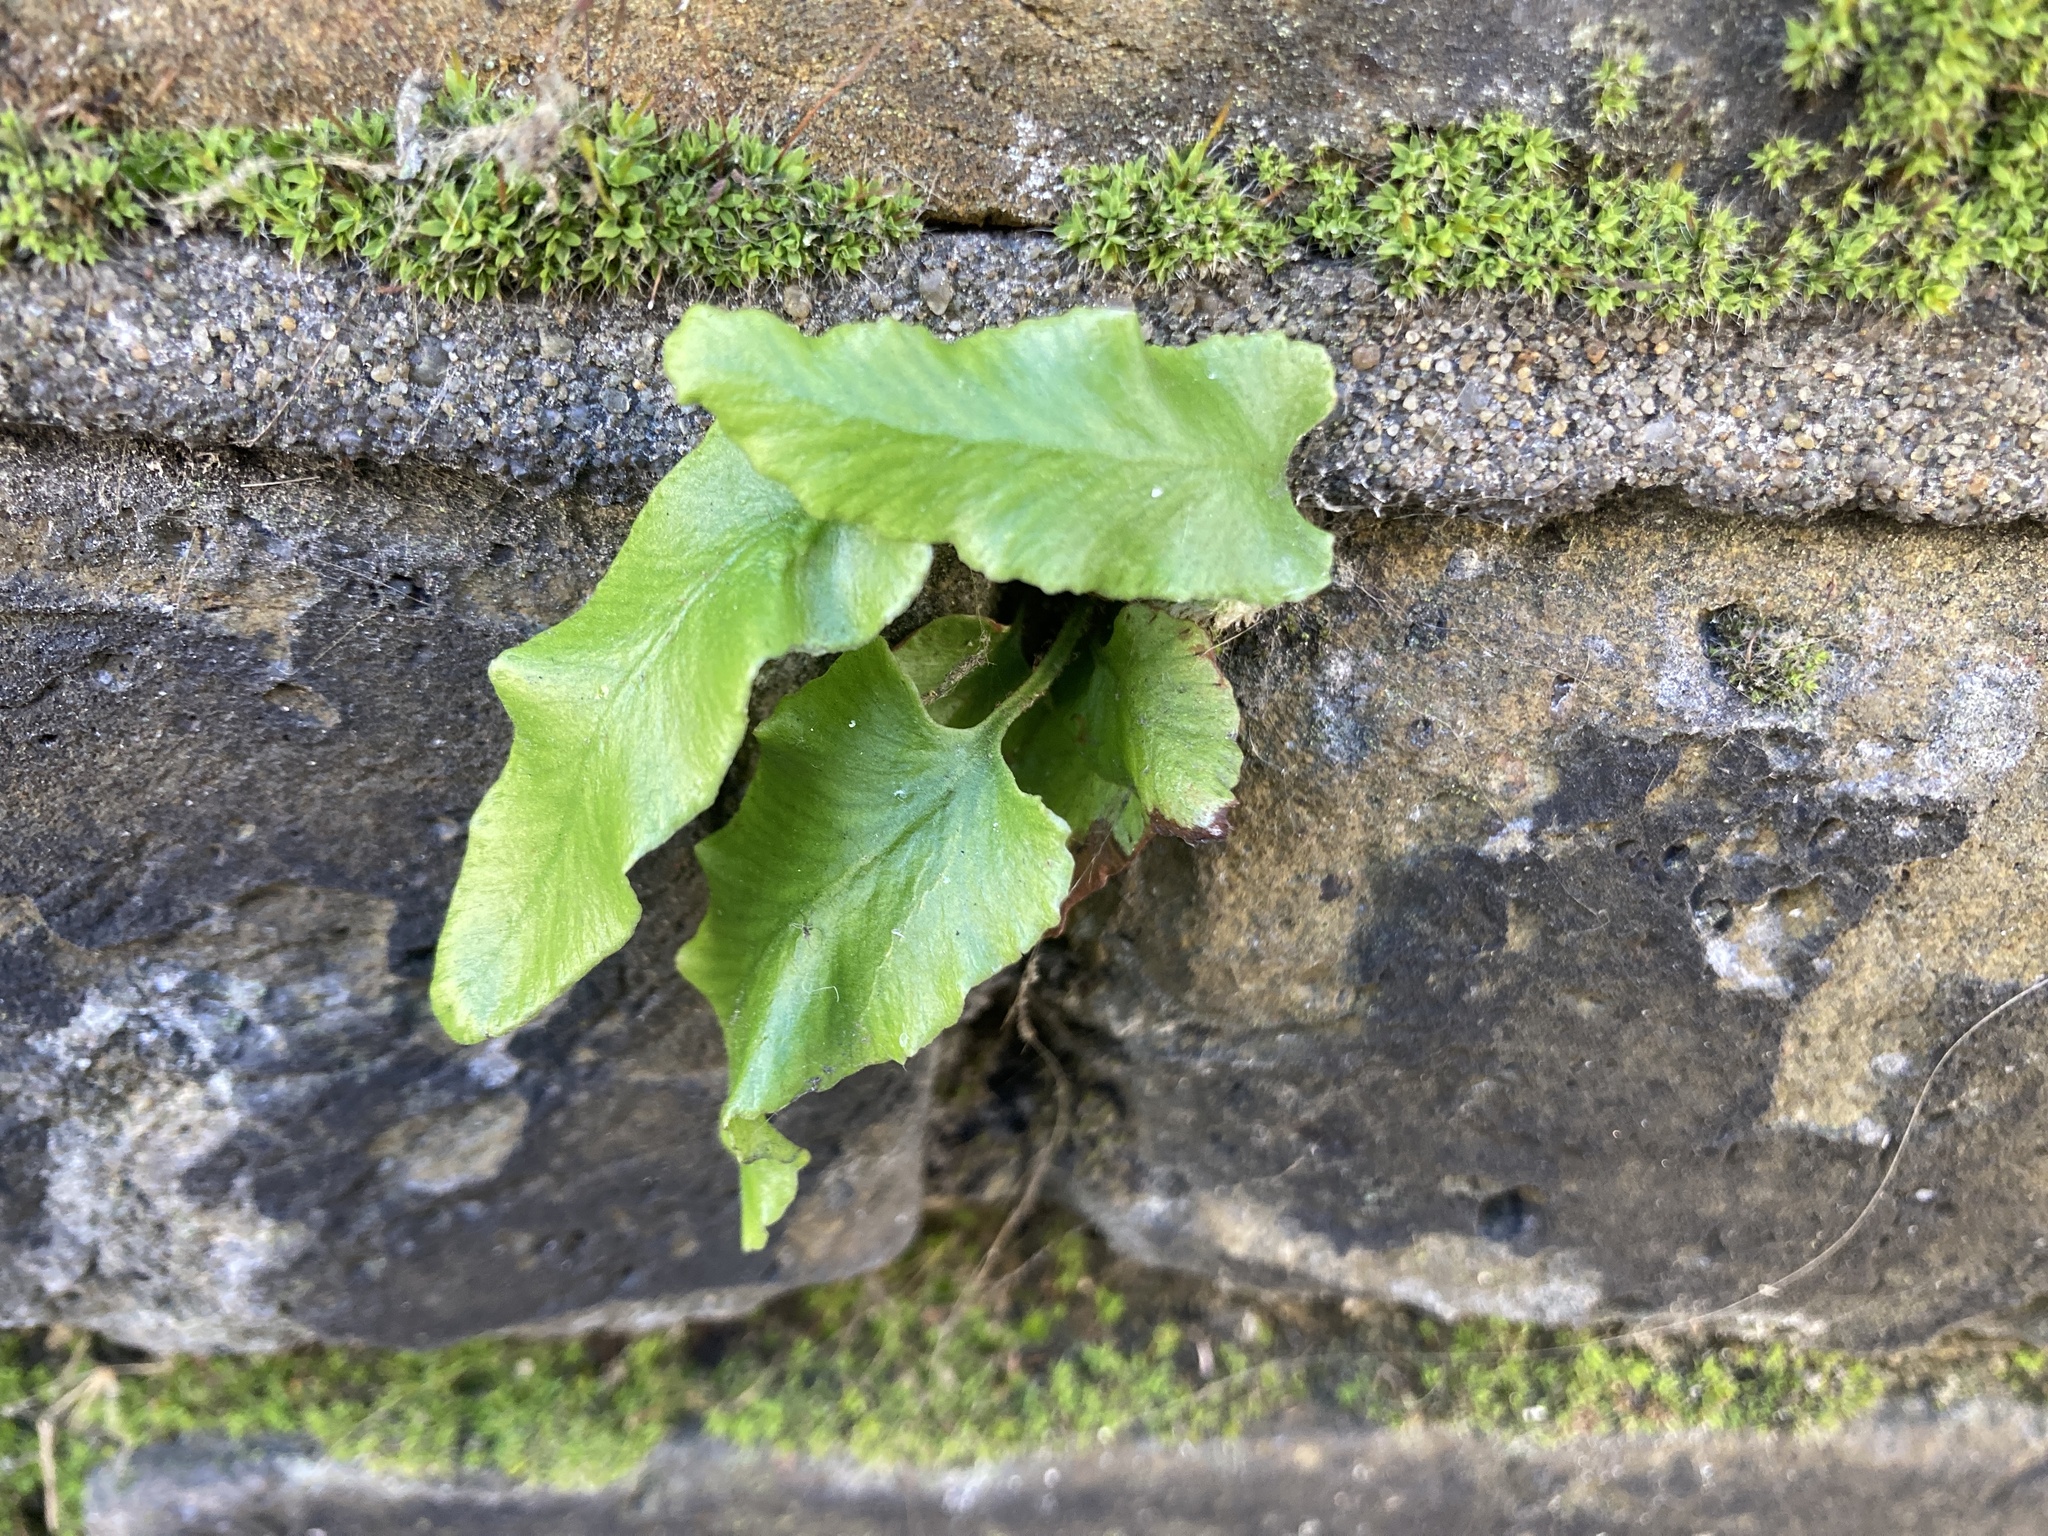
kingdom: Plantae
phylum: Tracheophyta
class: Polypodiopsida
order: Polypodiales
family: Aspleniaceae
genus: Asplenium
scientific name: Asplenium scolopendrium
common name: Hart's-tongue fern
